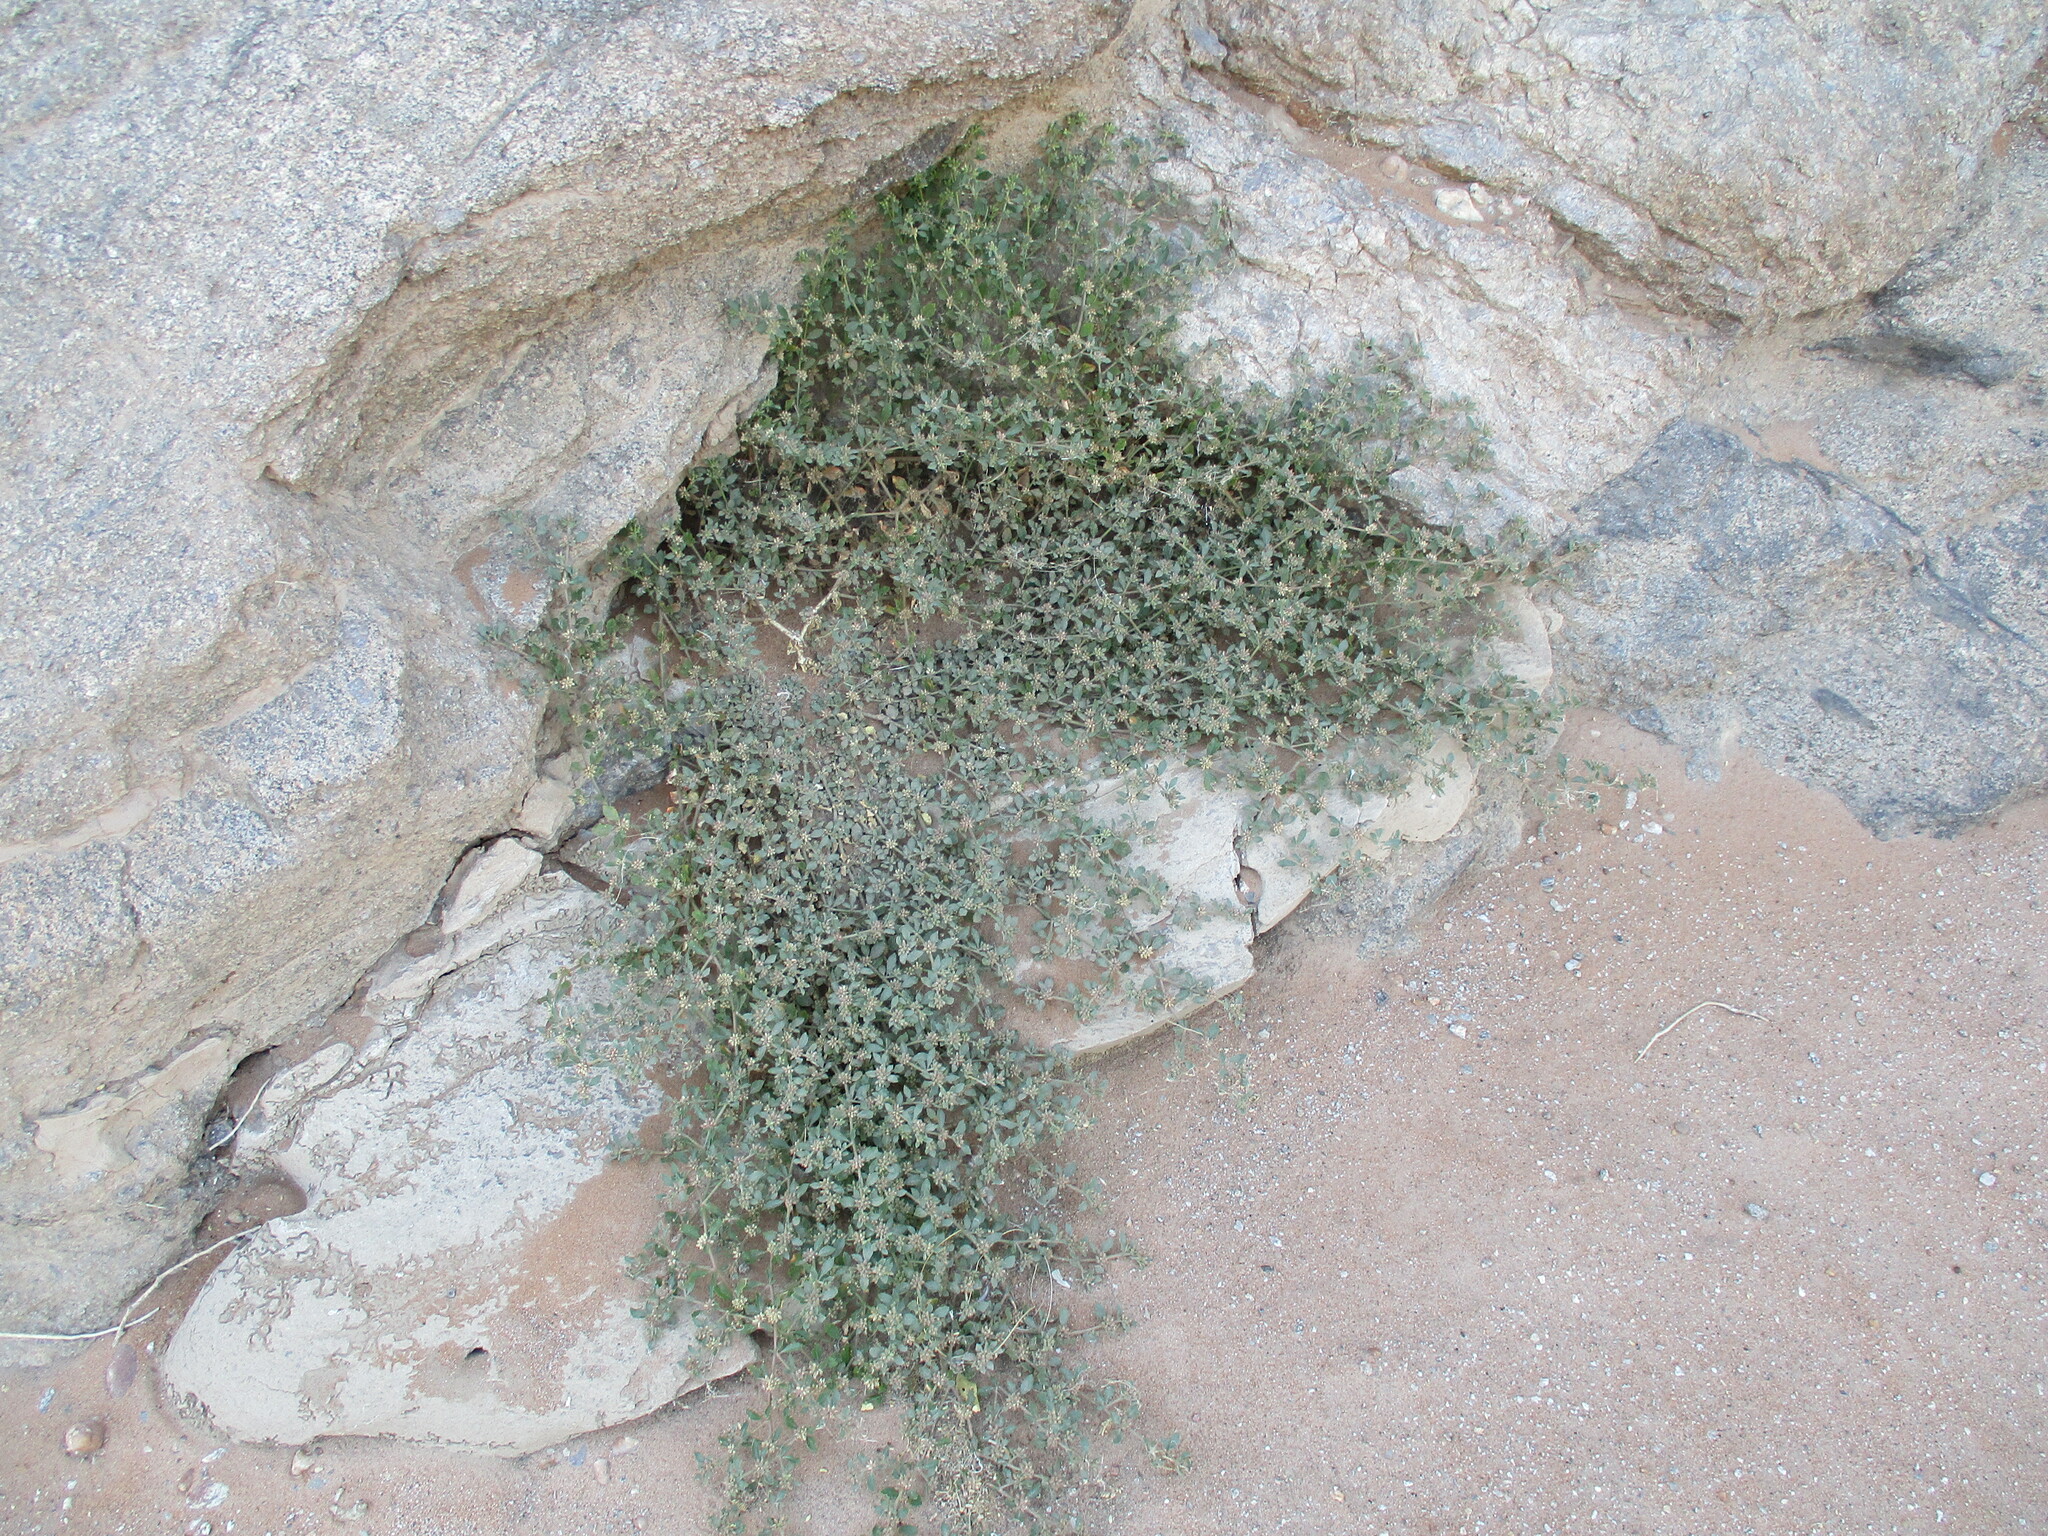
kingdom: Plantae
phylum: Tracheophyta
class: Magnoliopsida
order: Caryophyllales
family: Molluginaceae
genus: Glinus
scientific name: Glinus lotoides
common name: Lotus sweetjuice
